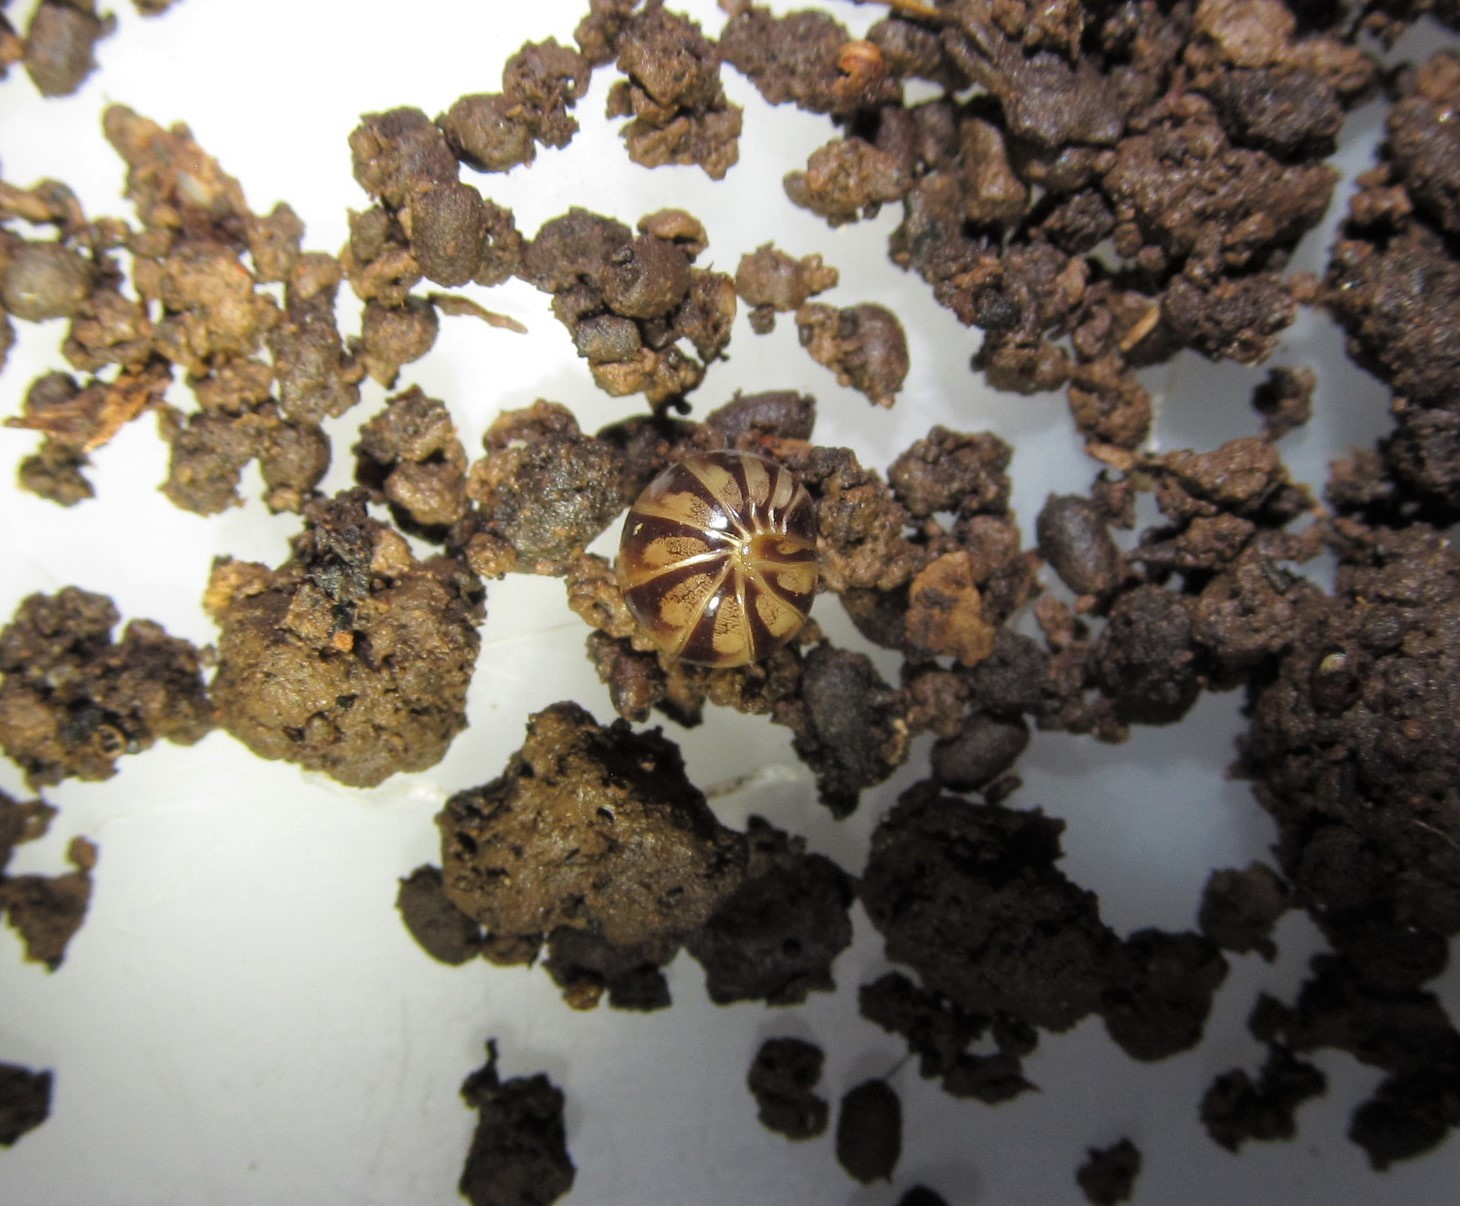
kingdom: Animalia
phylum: Arthropoda
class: Diplopoda
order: Glomerida
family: Protoglomeridae
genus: Glomeroides
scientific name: Glomeroides pellucidus
